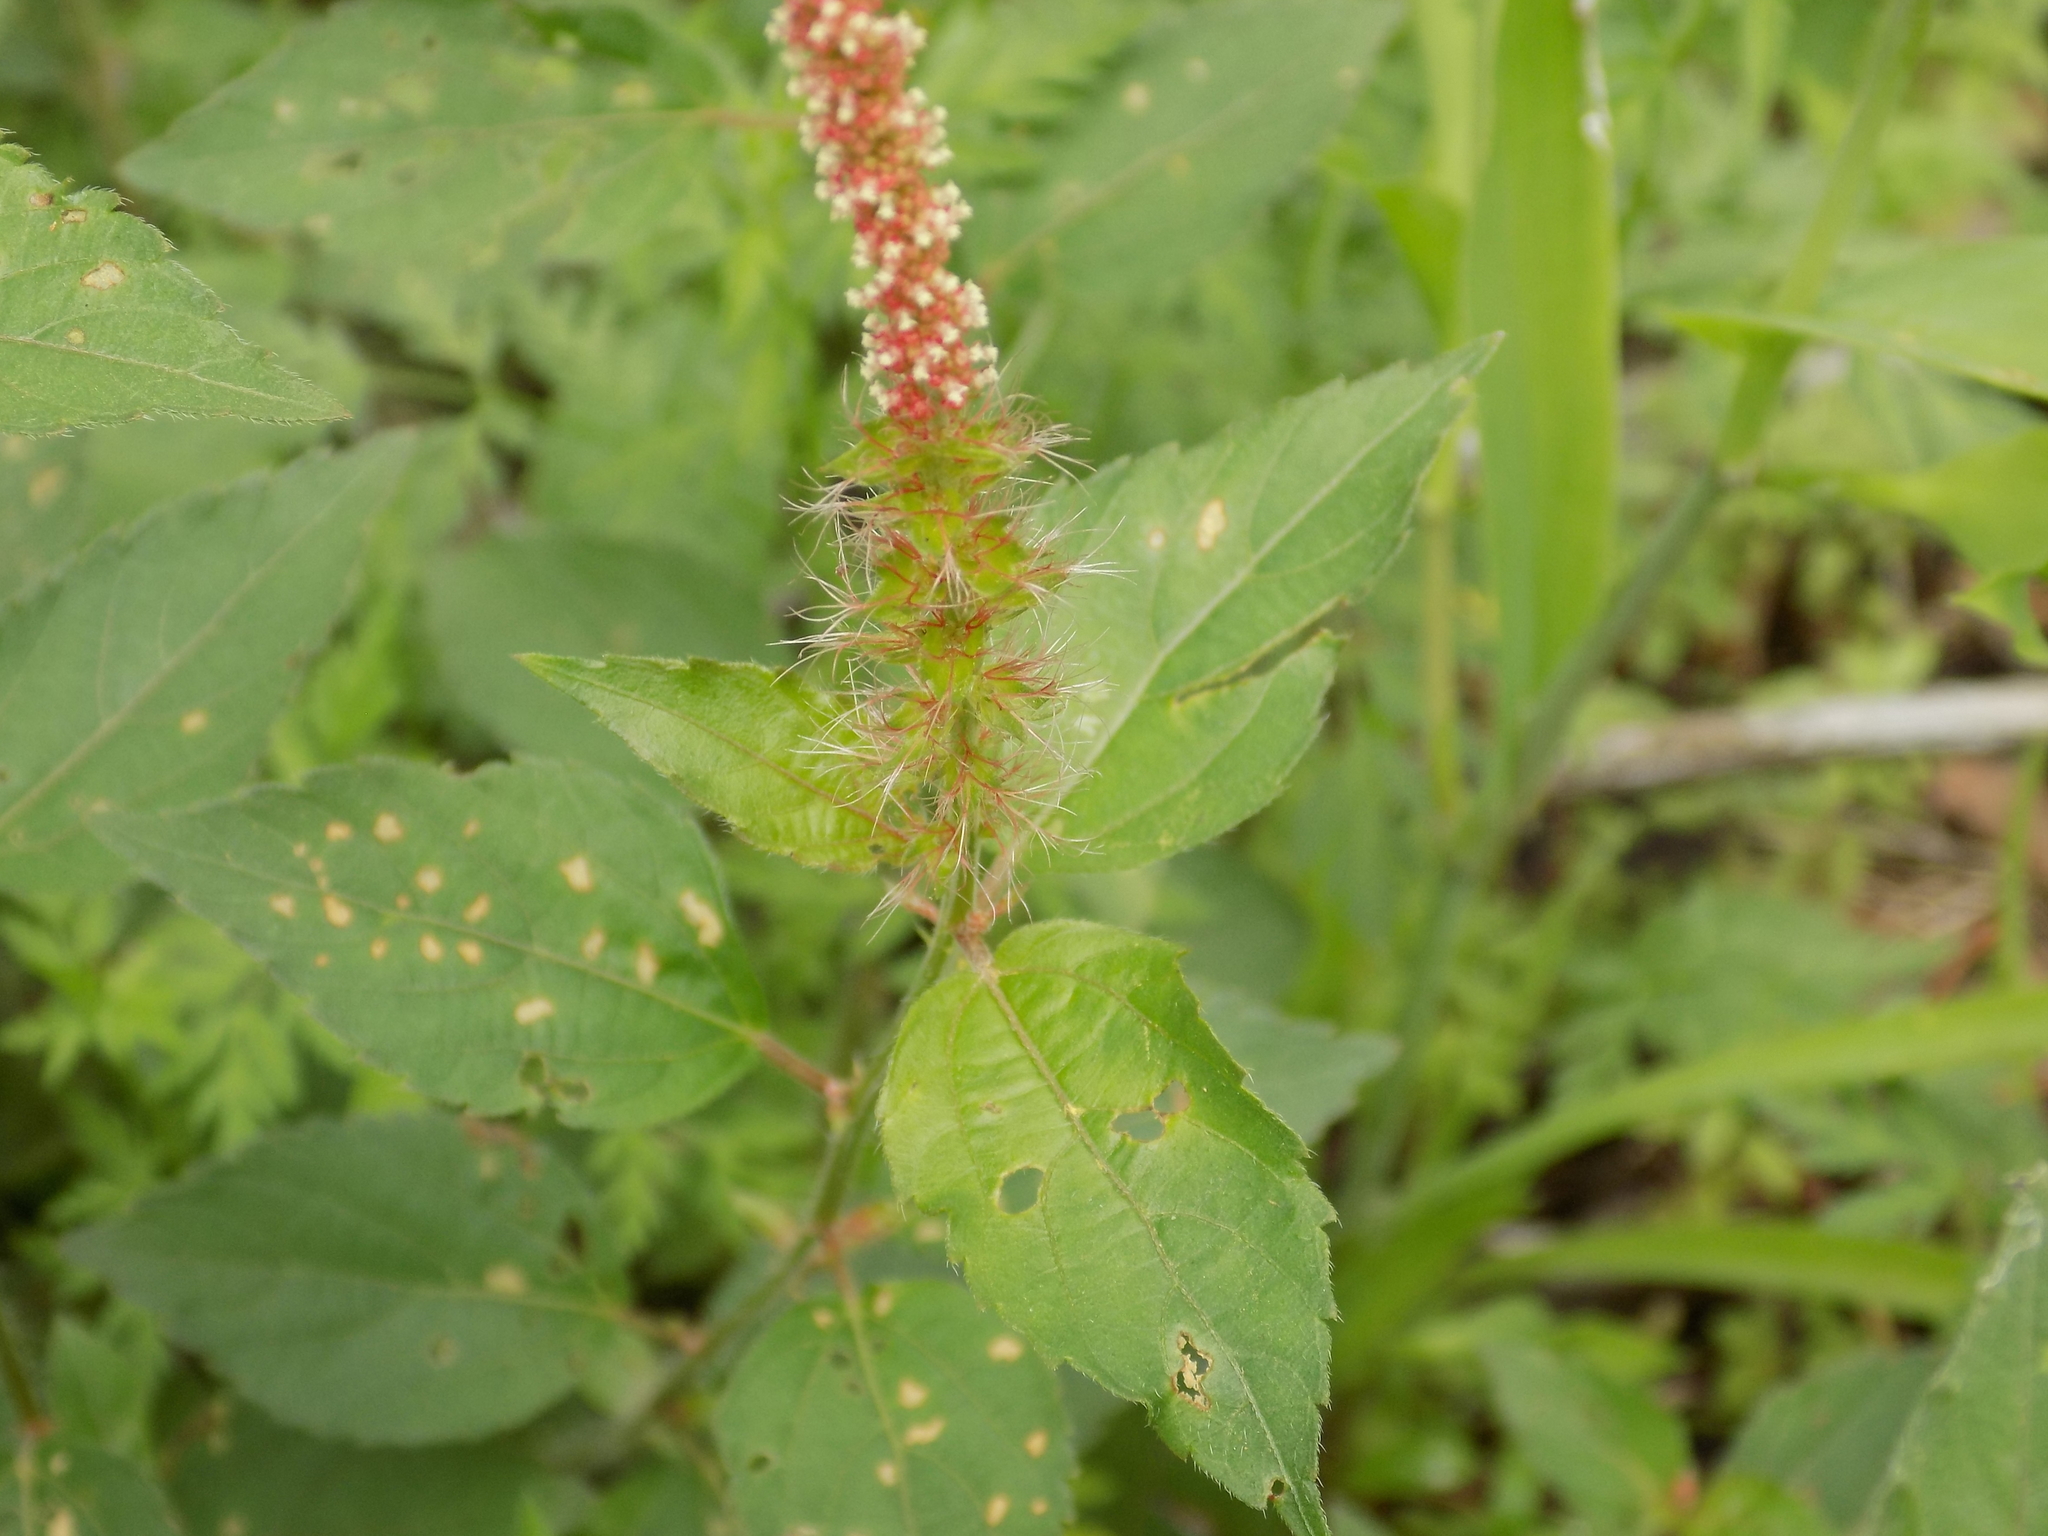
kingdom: Plantae
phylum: Tracheophyta
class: Magnoliopsida
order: Malpighiales
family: Euphorbiaceae
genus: Acalypha
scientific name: Acalypha phleoides
